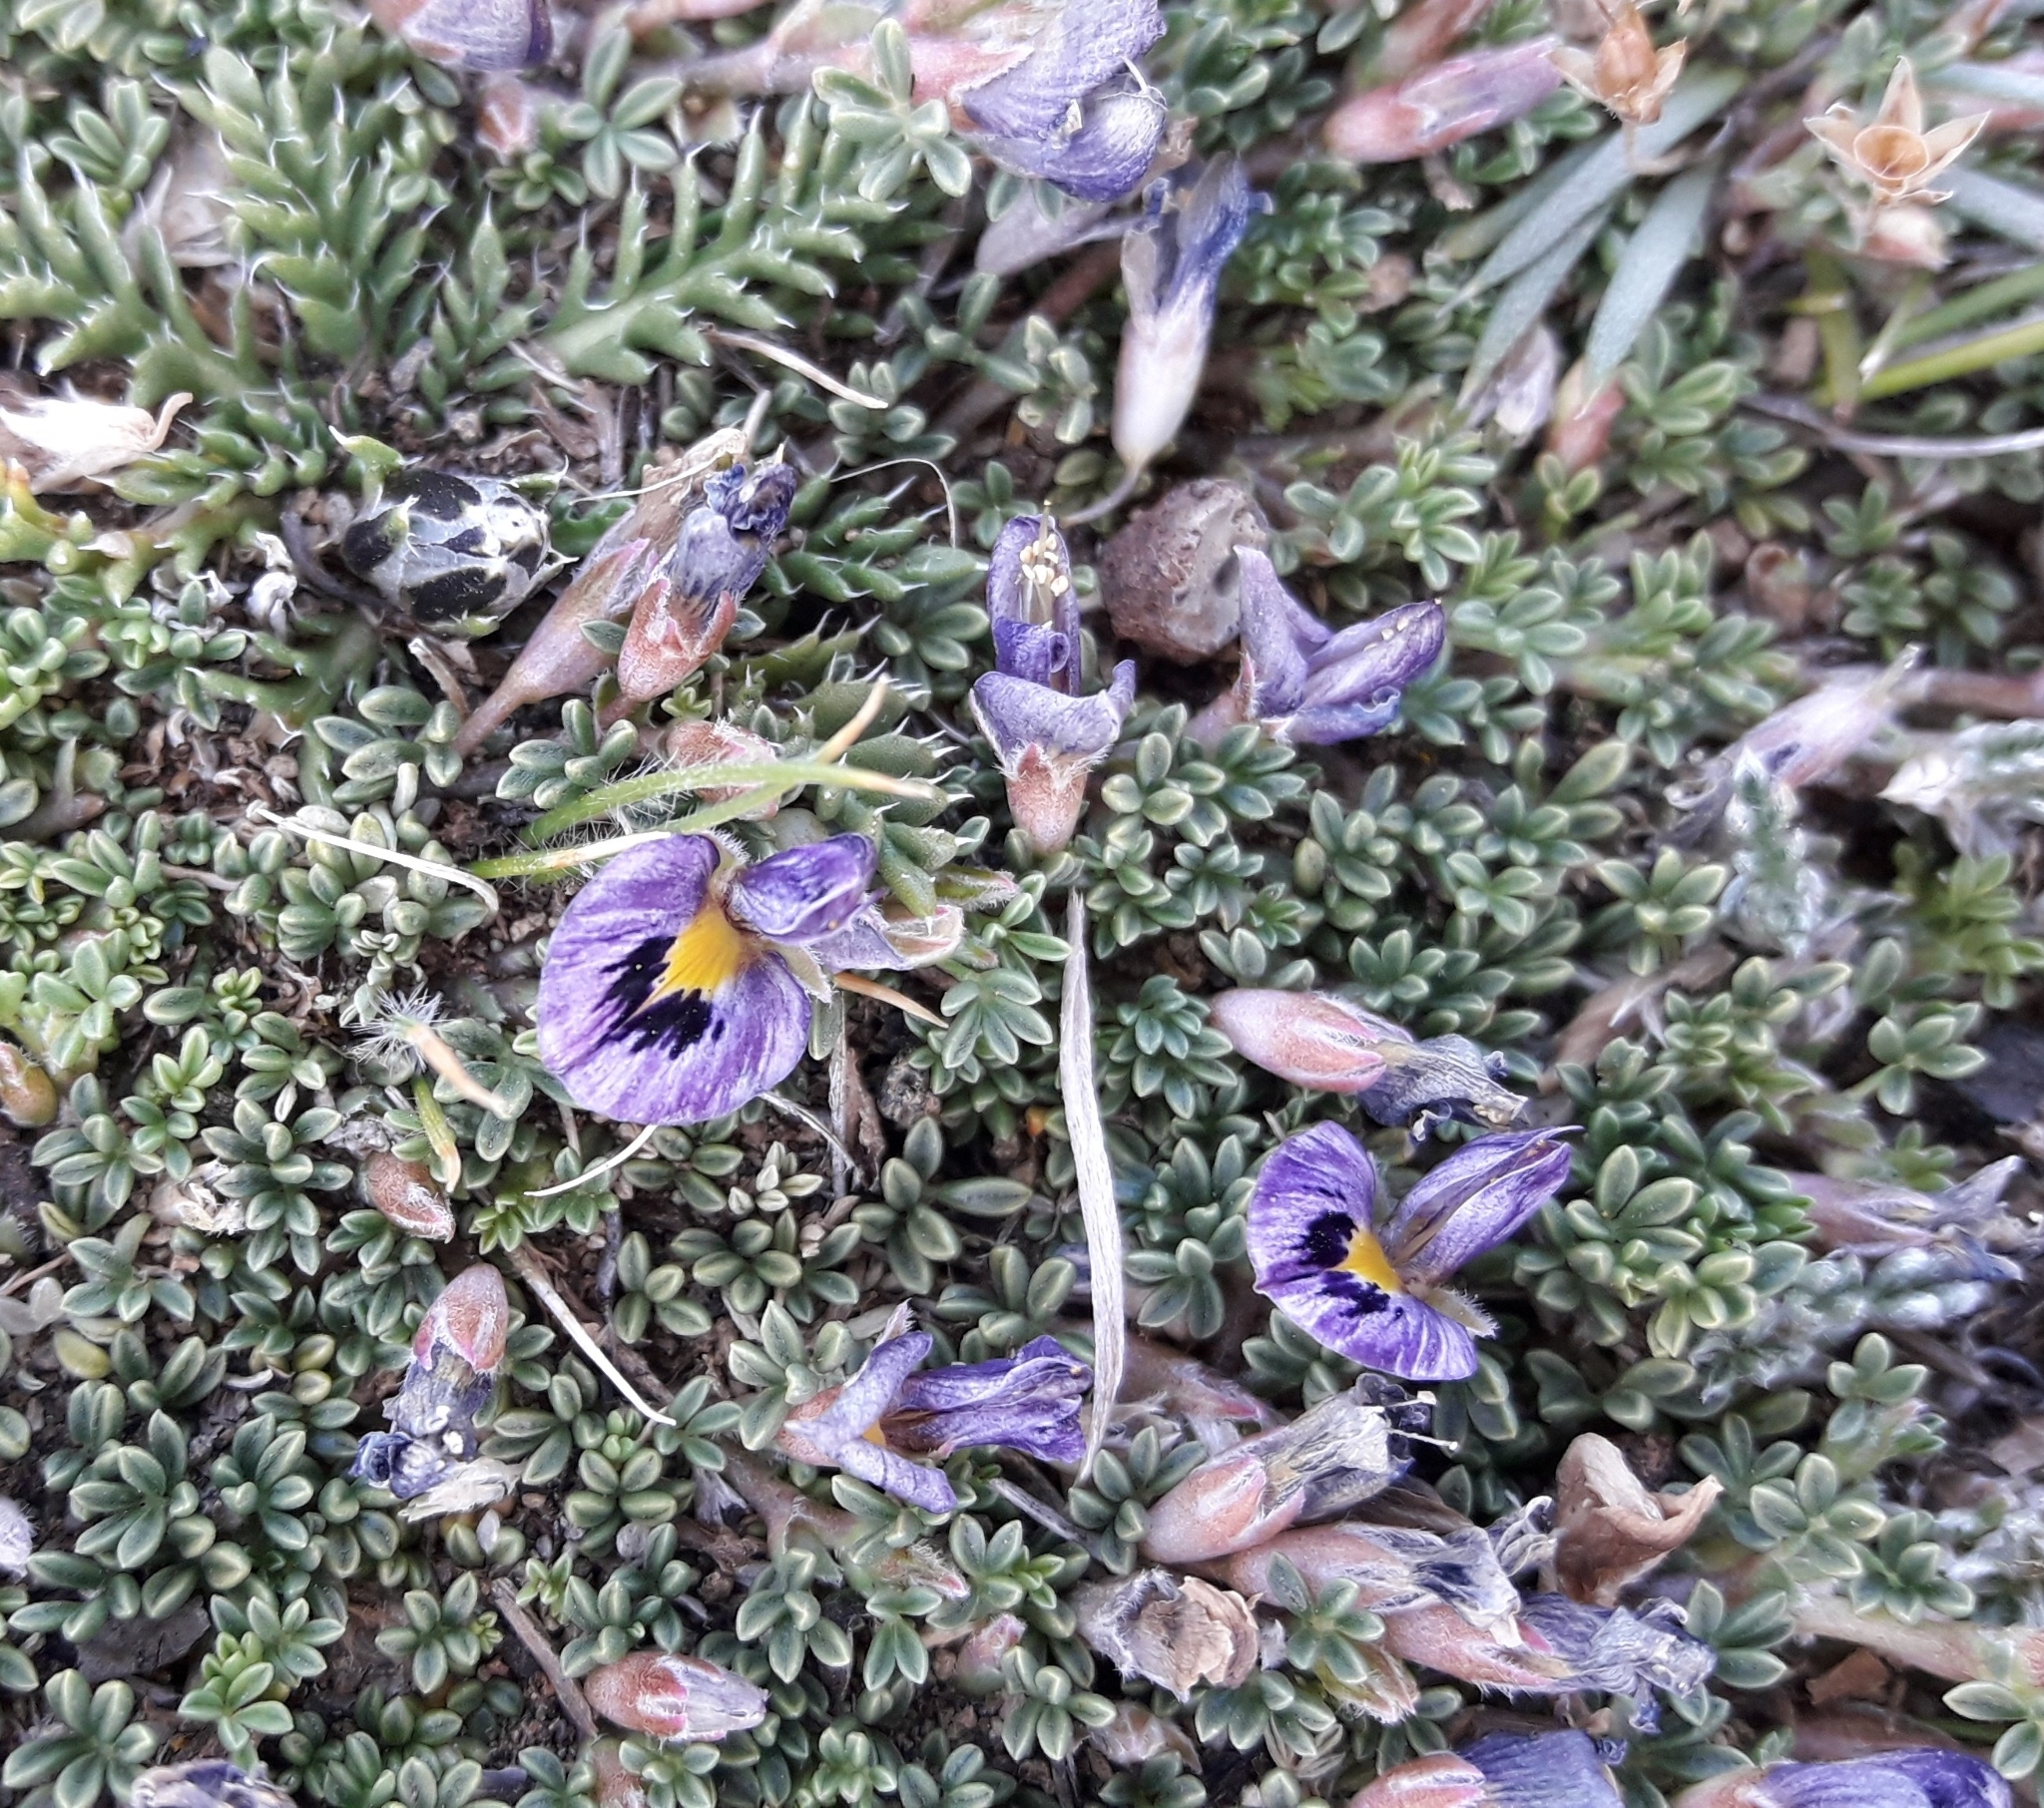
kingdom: Plantae
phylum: Tracheophyta
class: Magnoliopsida
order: Fabales
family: Fabaceae
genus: Adesmia
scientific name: Adesmia parvifolia
